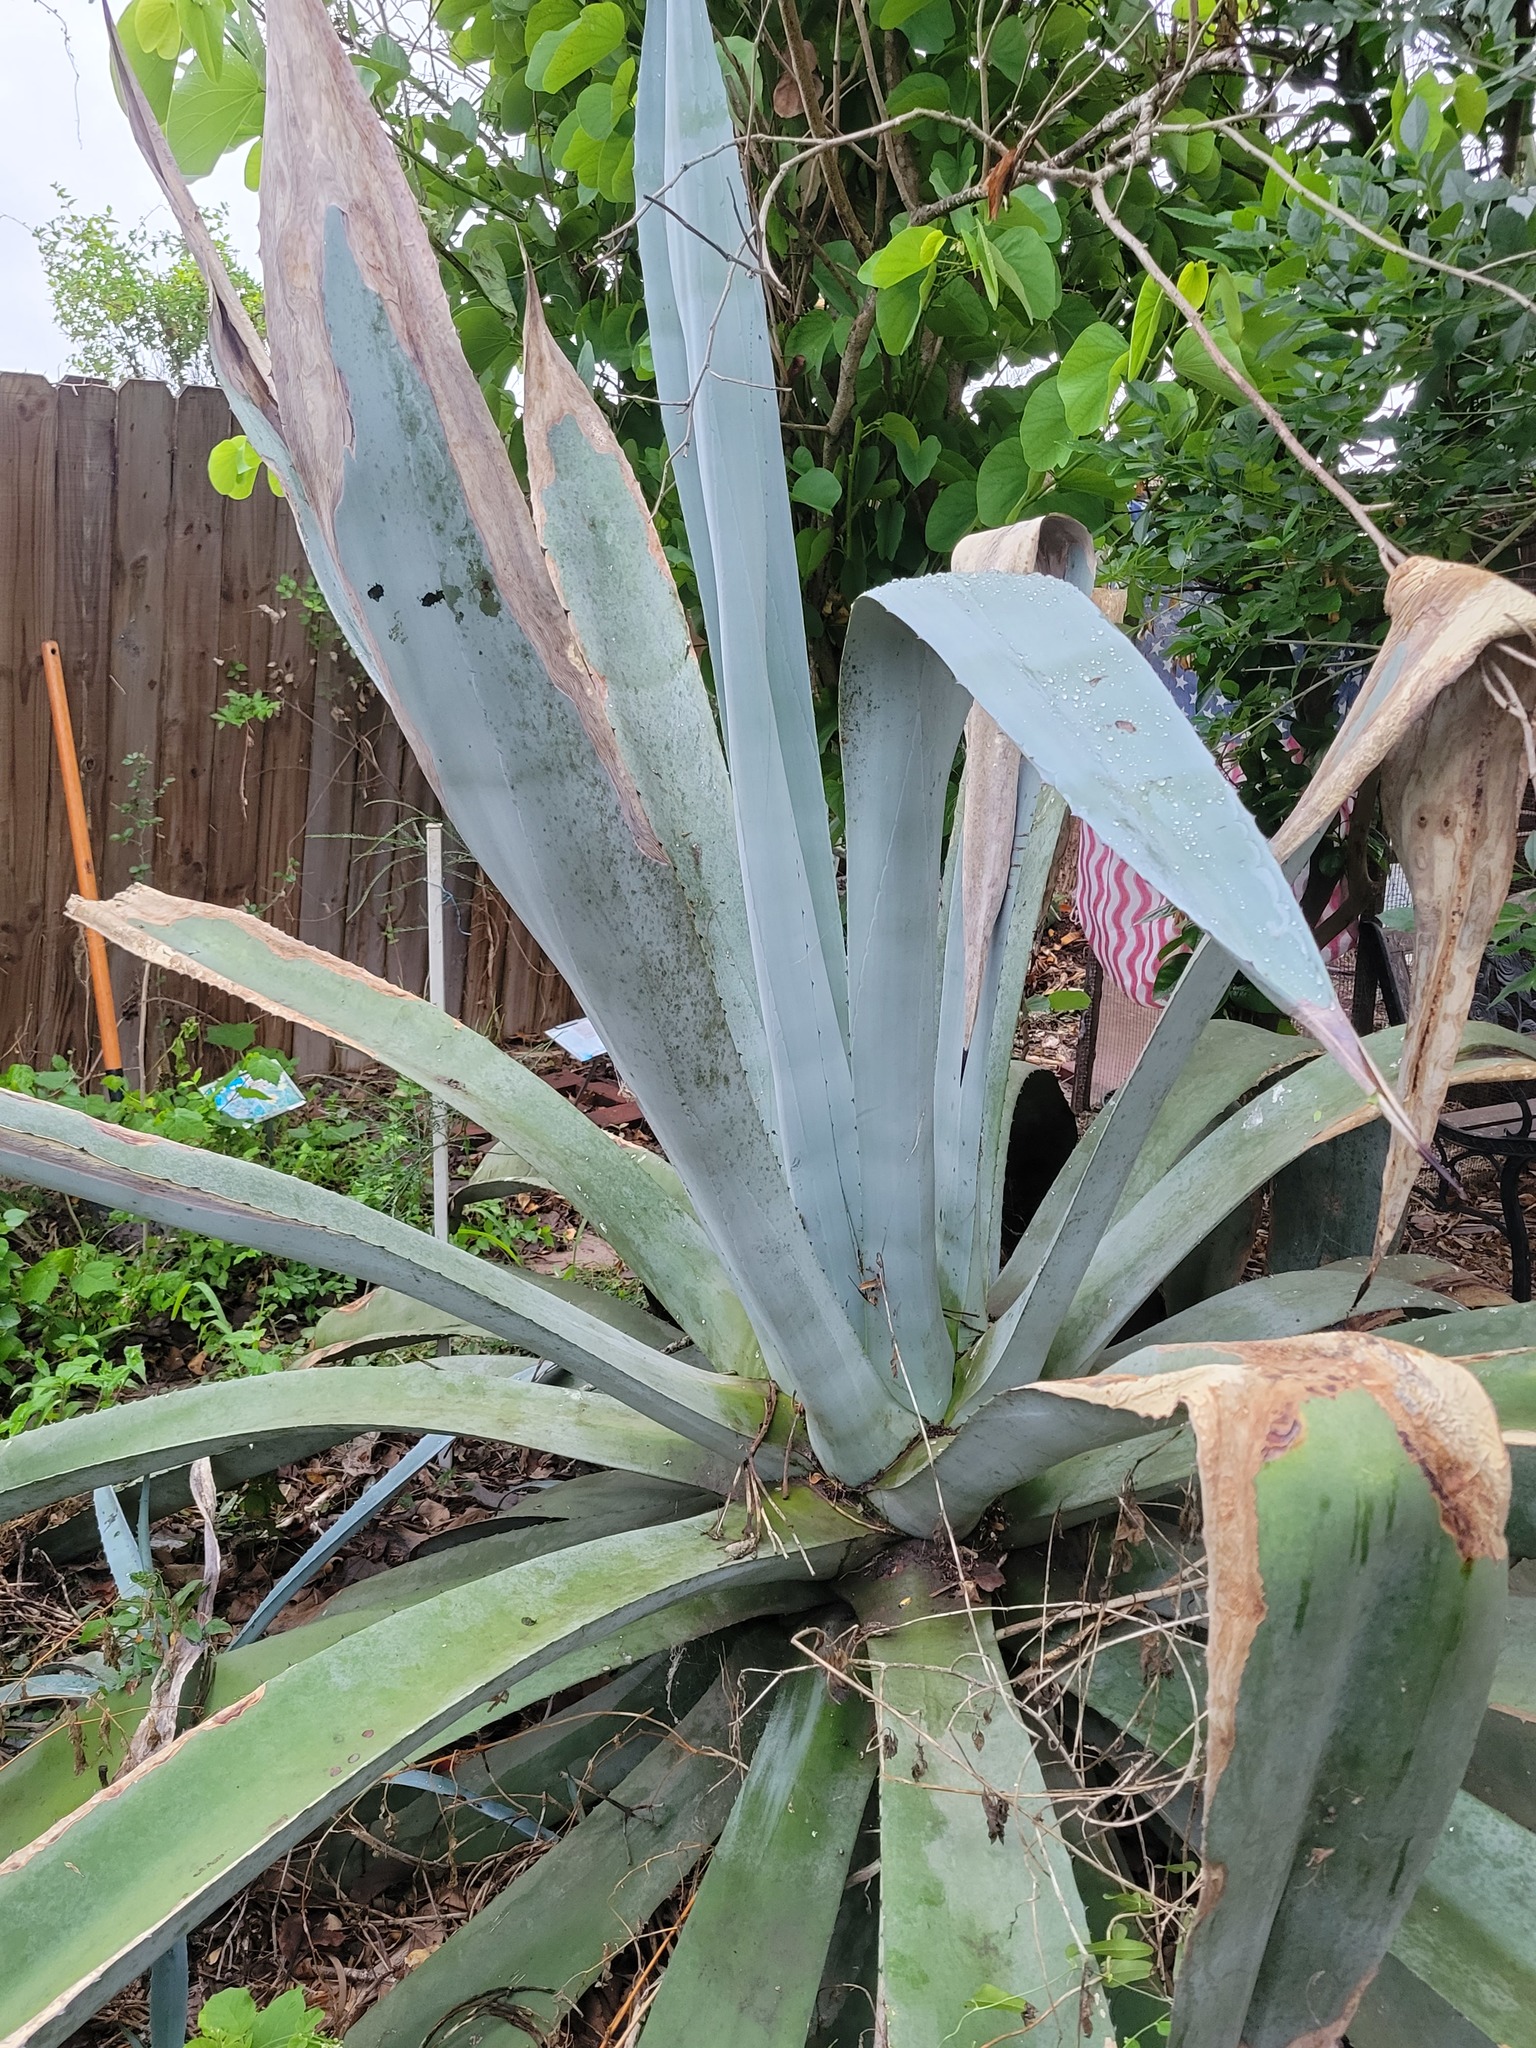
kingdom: Plantae
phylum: Tracheophyta
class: Liliopsida
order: Asparagales
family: Asparagaceae
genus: Agave
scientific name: Agave americana
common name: Centuryplant
